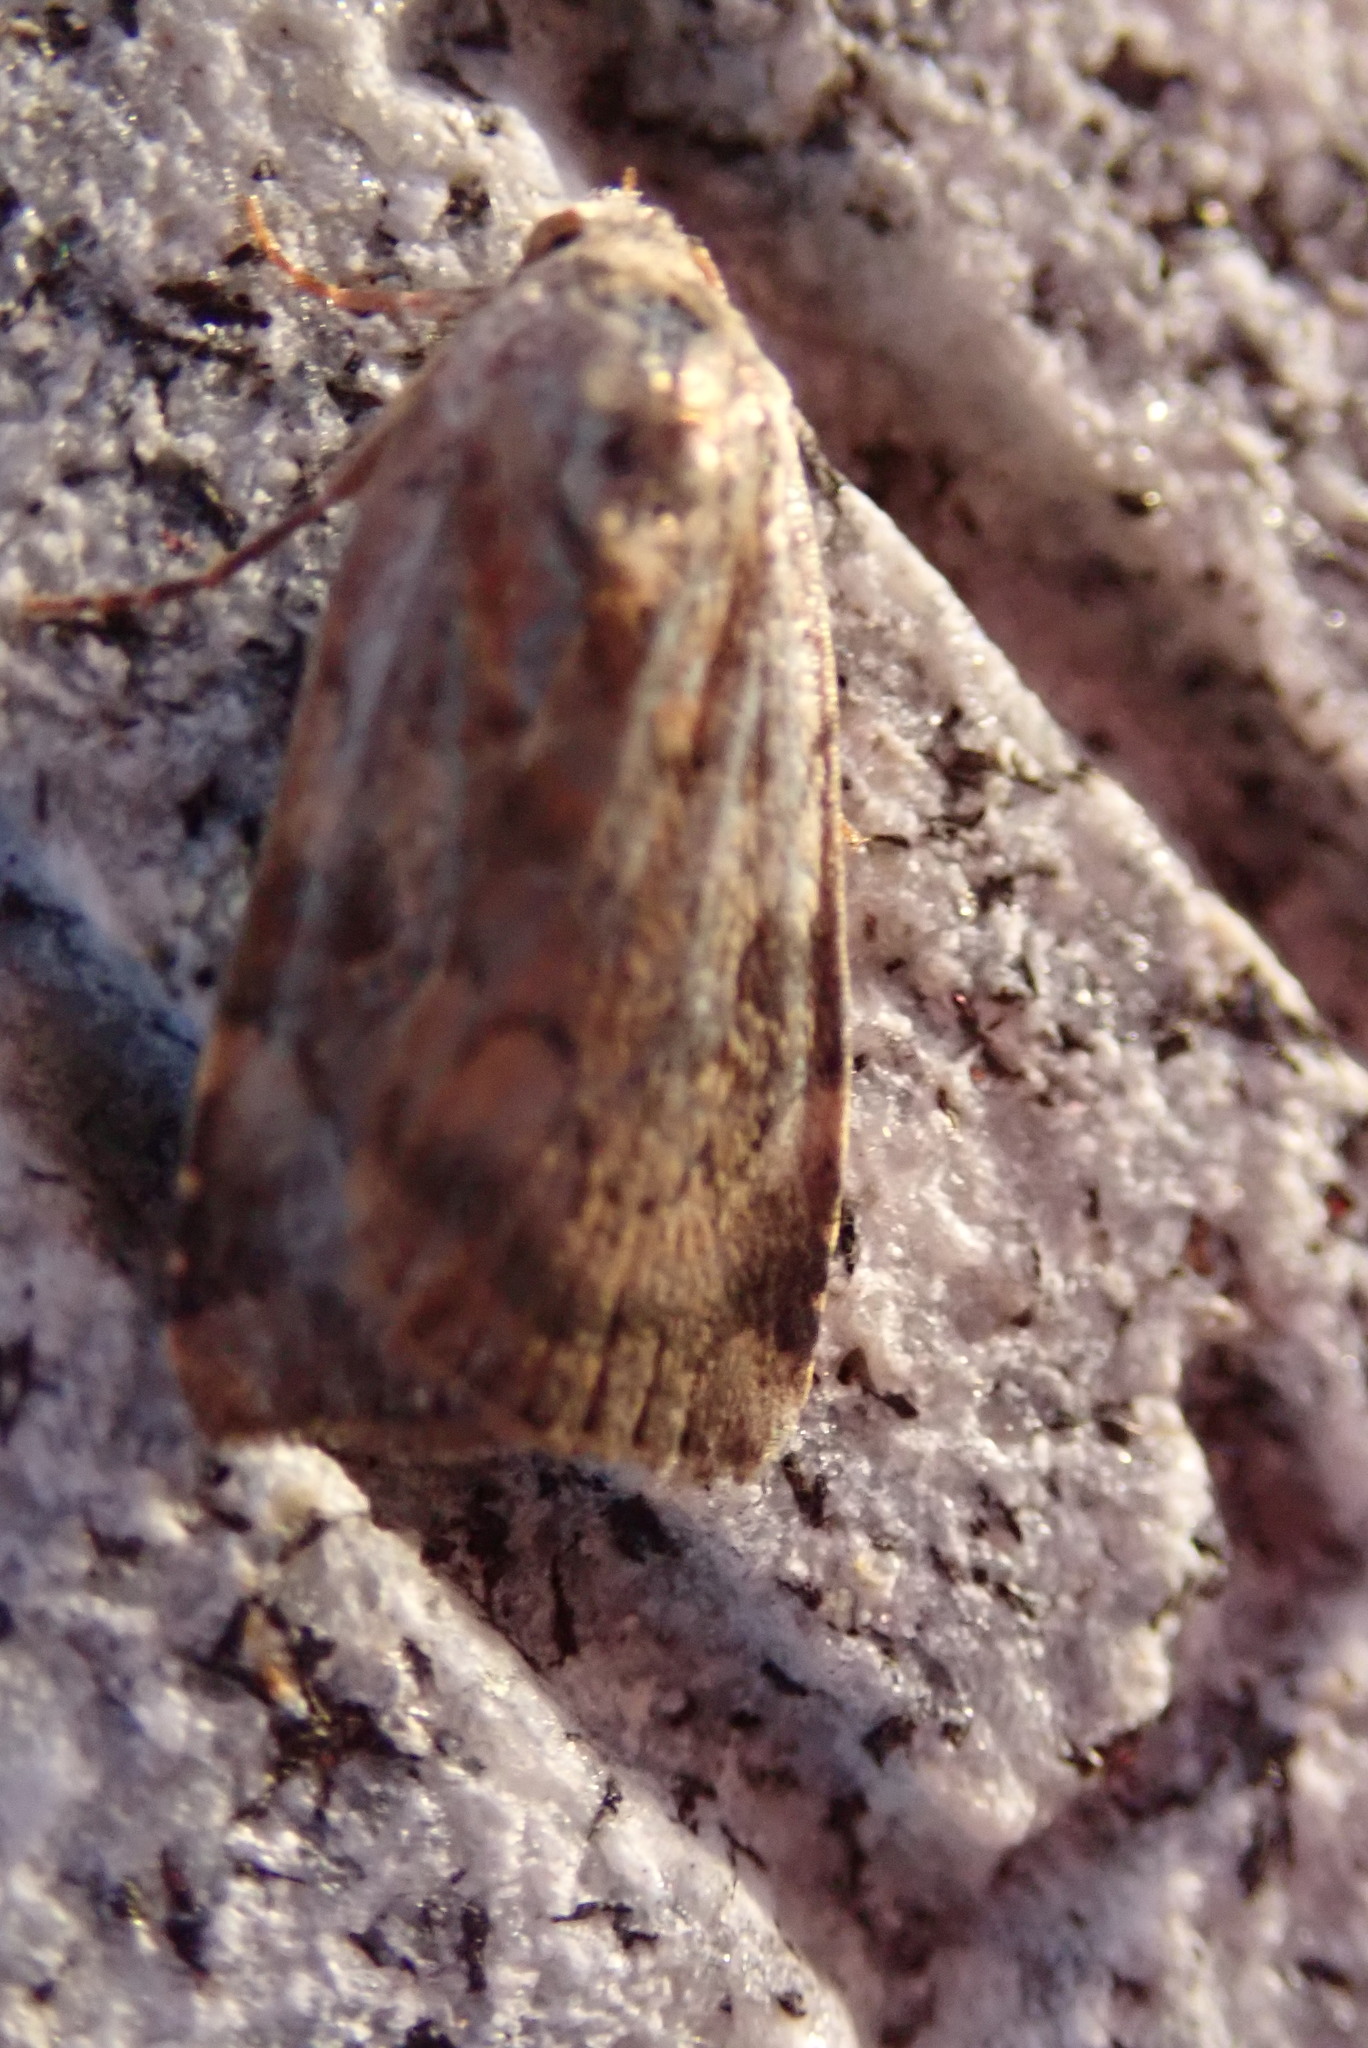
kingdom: Animalia
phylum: Arthropoda
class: Insecta
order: Lepidoptera
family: Noctuidae
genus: Cryptocala
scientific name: Cryptocala acadiensis
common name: Catocaline dart
